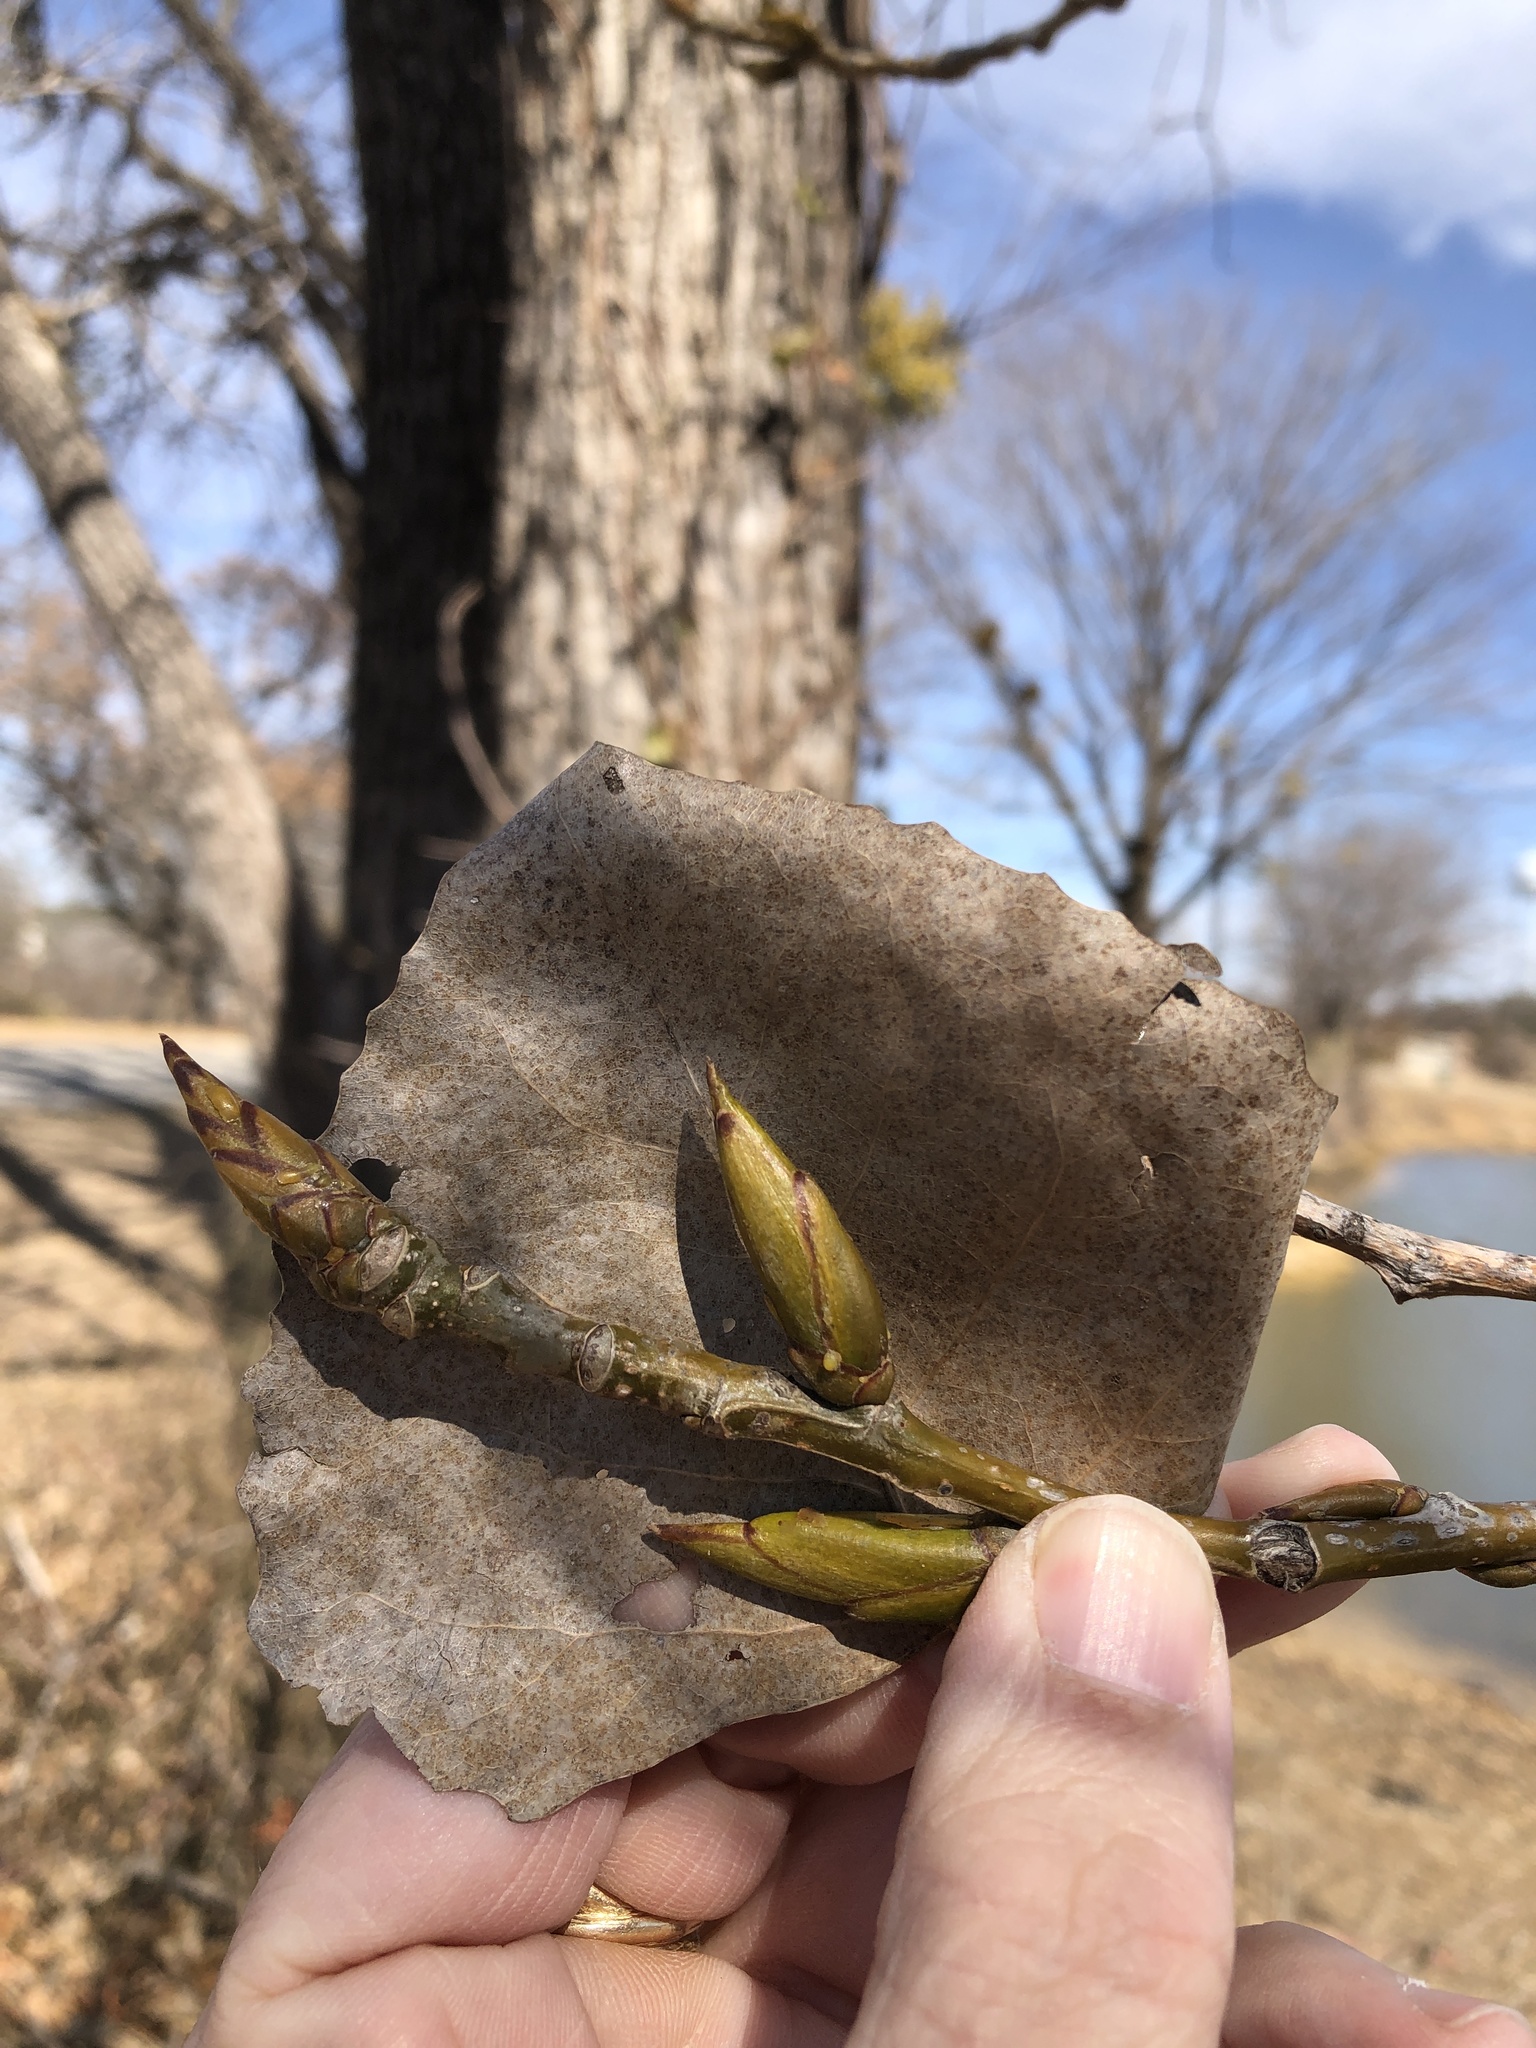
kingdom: Plantae
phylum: Tracheophyta
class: Magnoliopsida
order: Malpighiales
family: Salicaceae
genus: Populus
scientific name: Populus deltoides
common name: Eastern cottonwood
